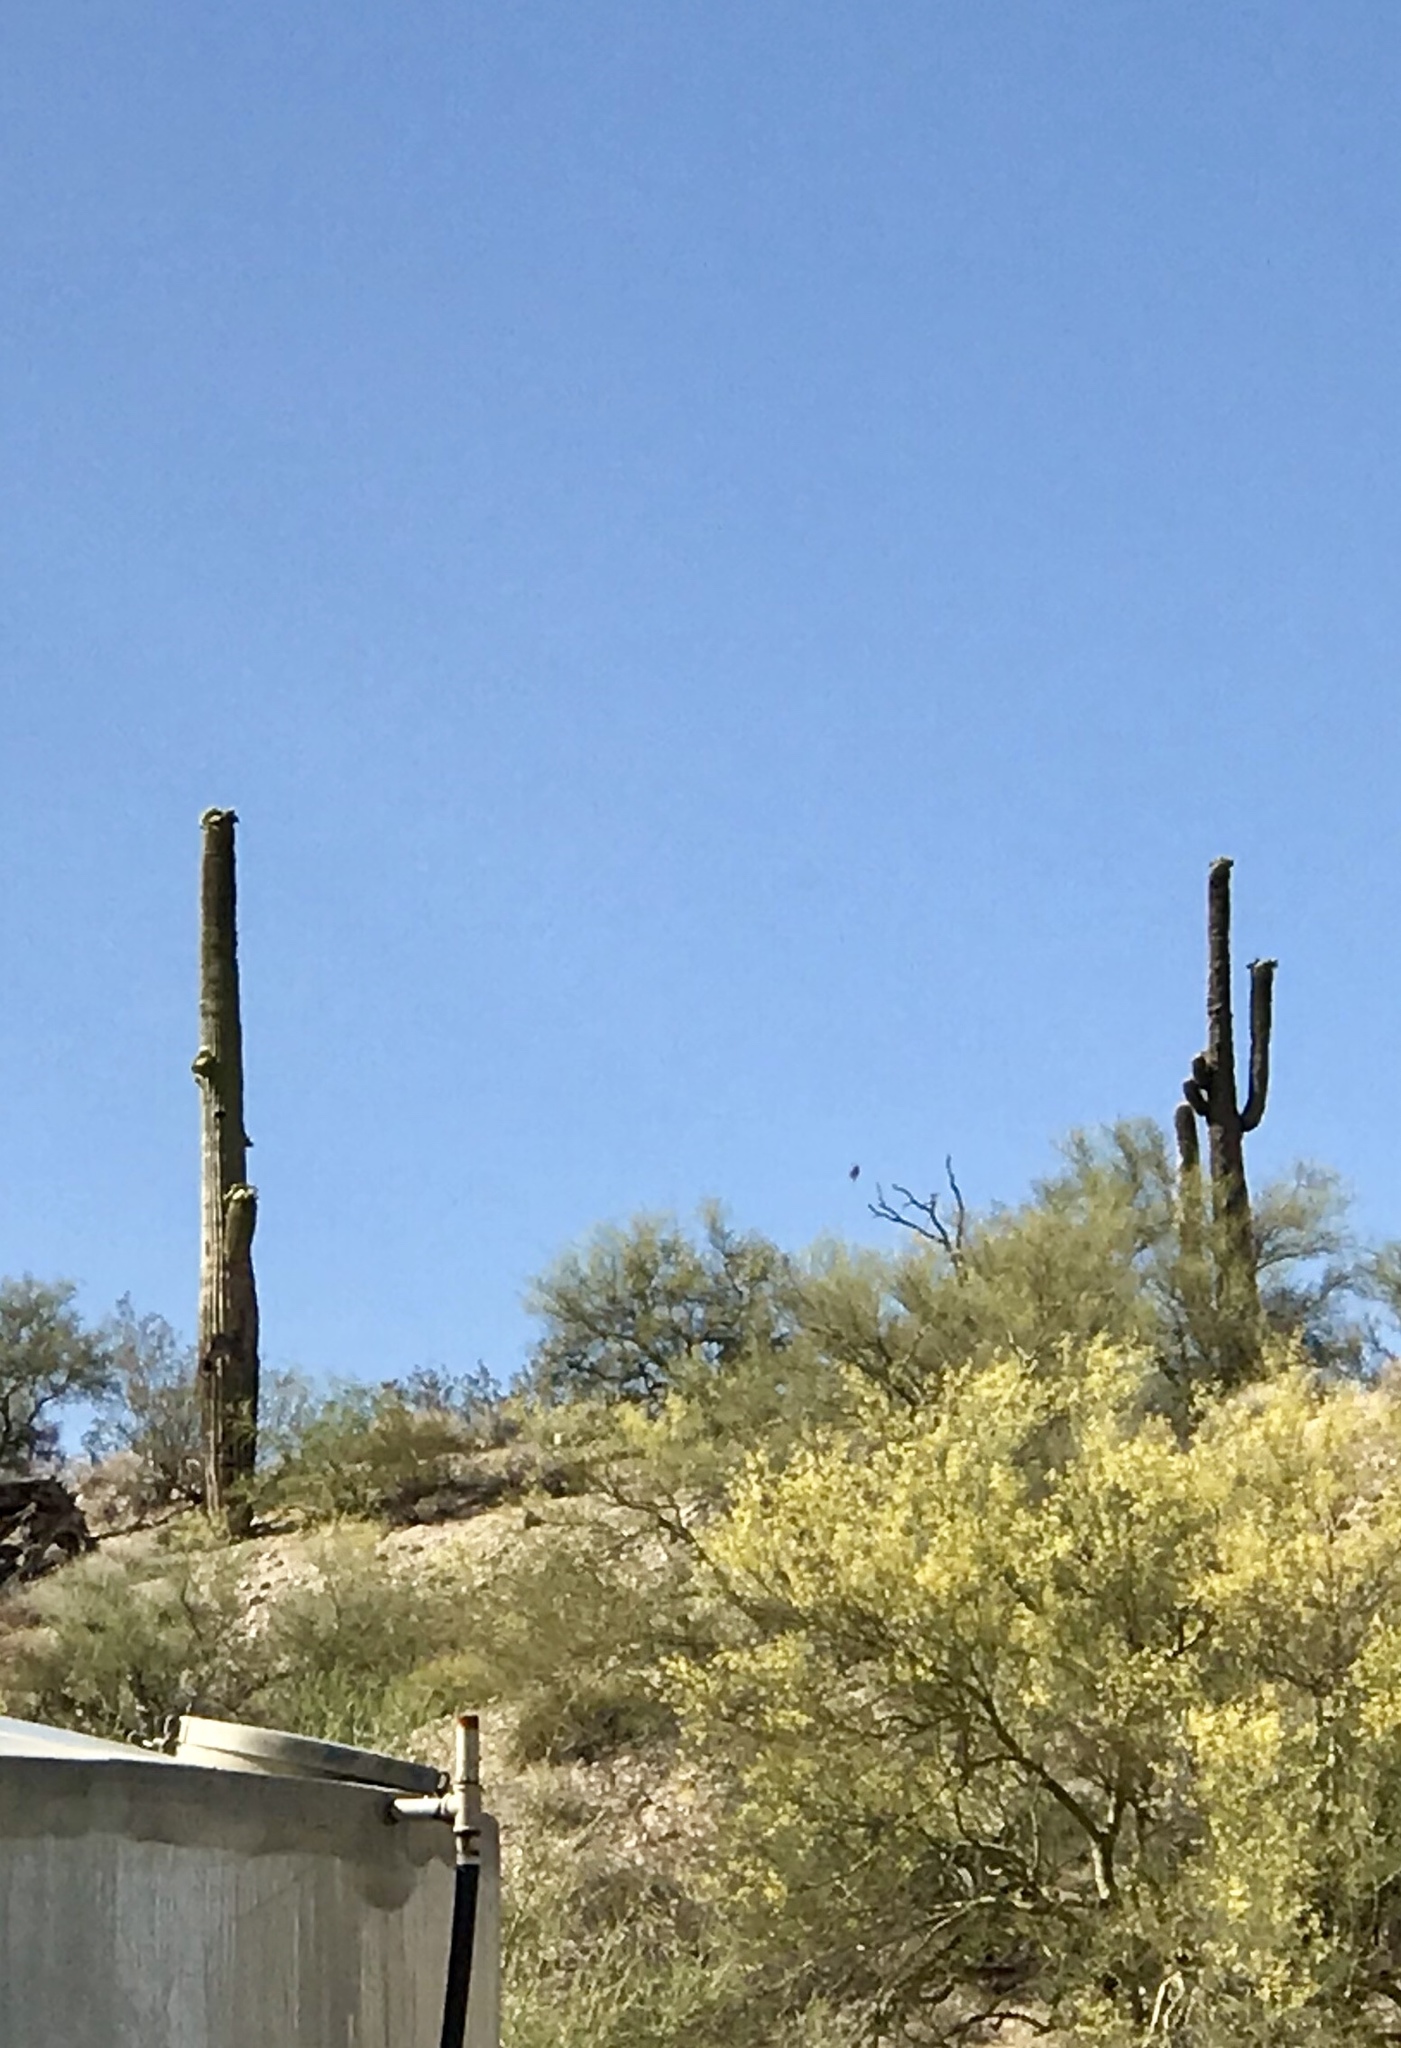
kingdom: Plantae
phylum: Tracheophyta
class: Magnoliopsida
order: Caryophyllales
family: Cactaceae
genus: Carnegiea
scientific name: Carnegiea gigantea
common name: Saguaro
